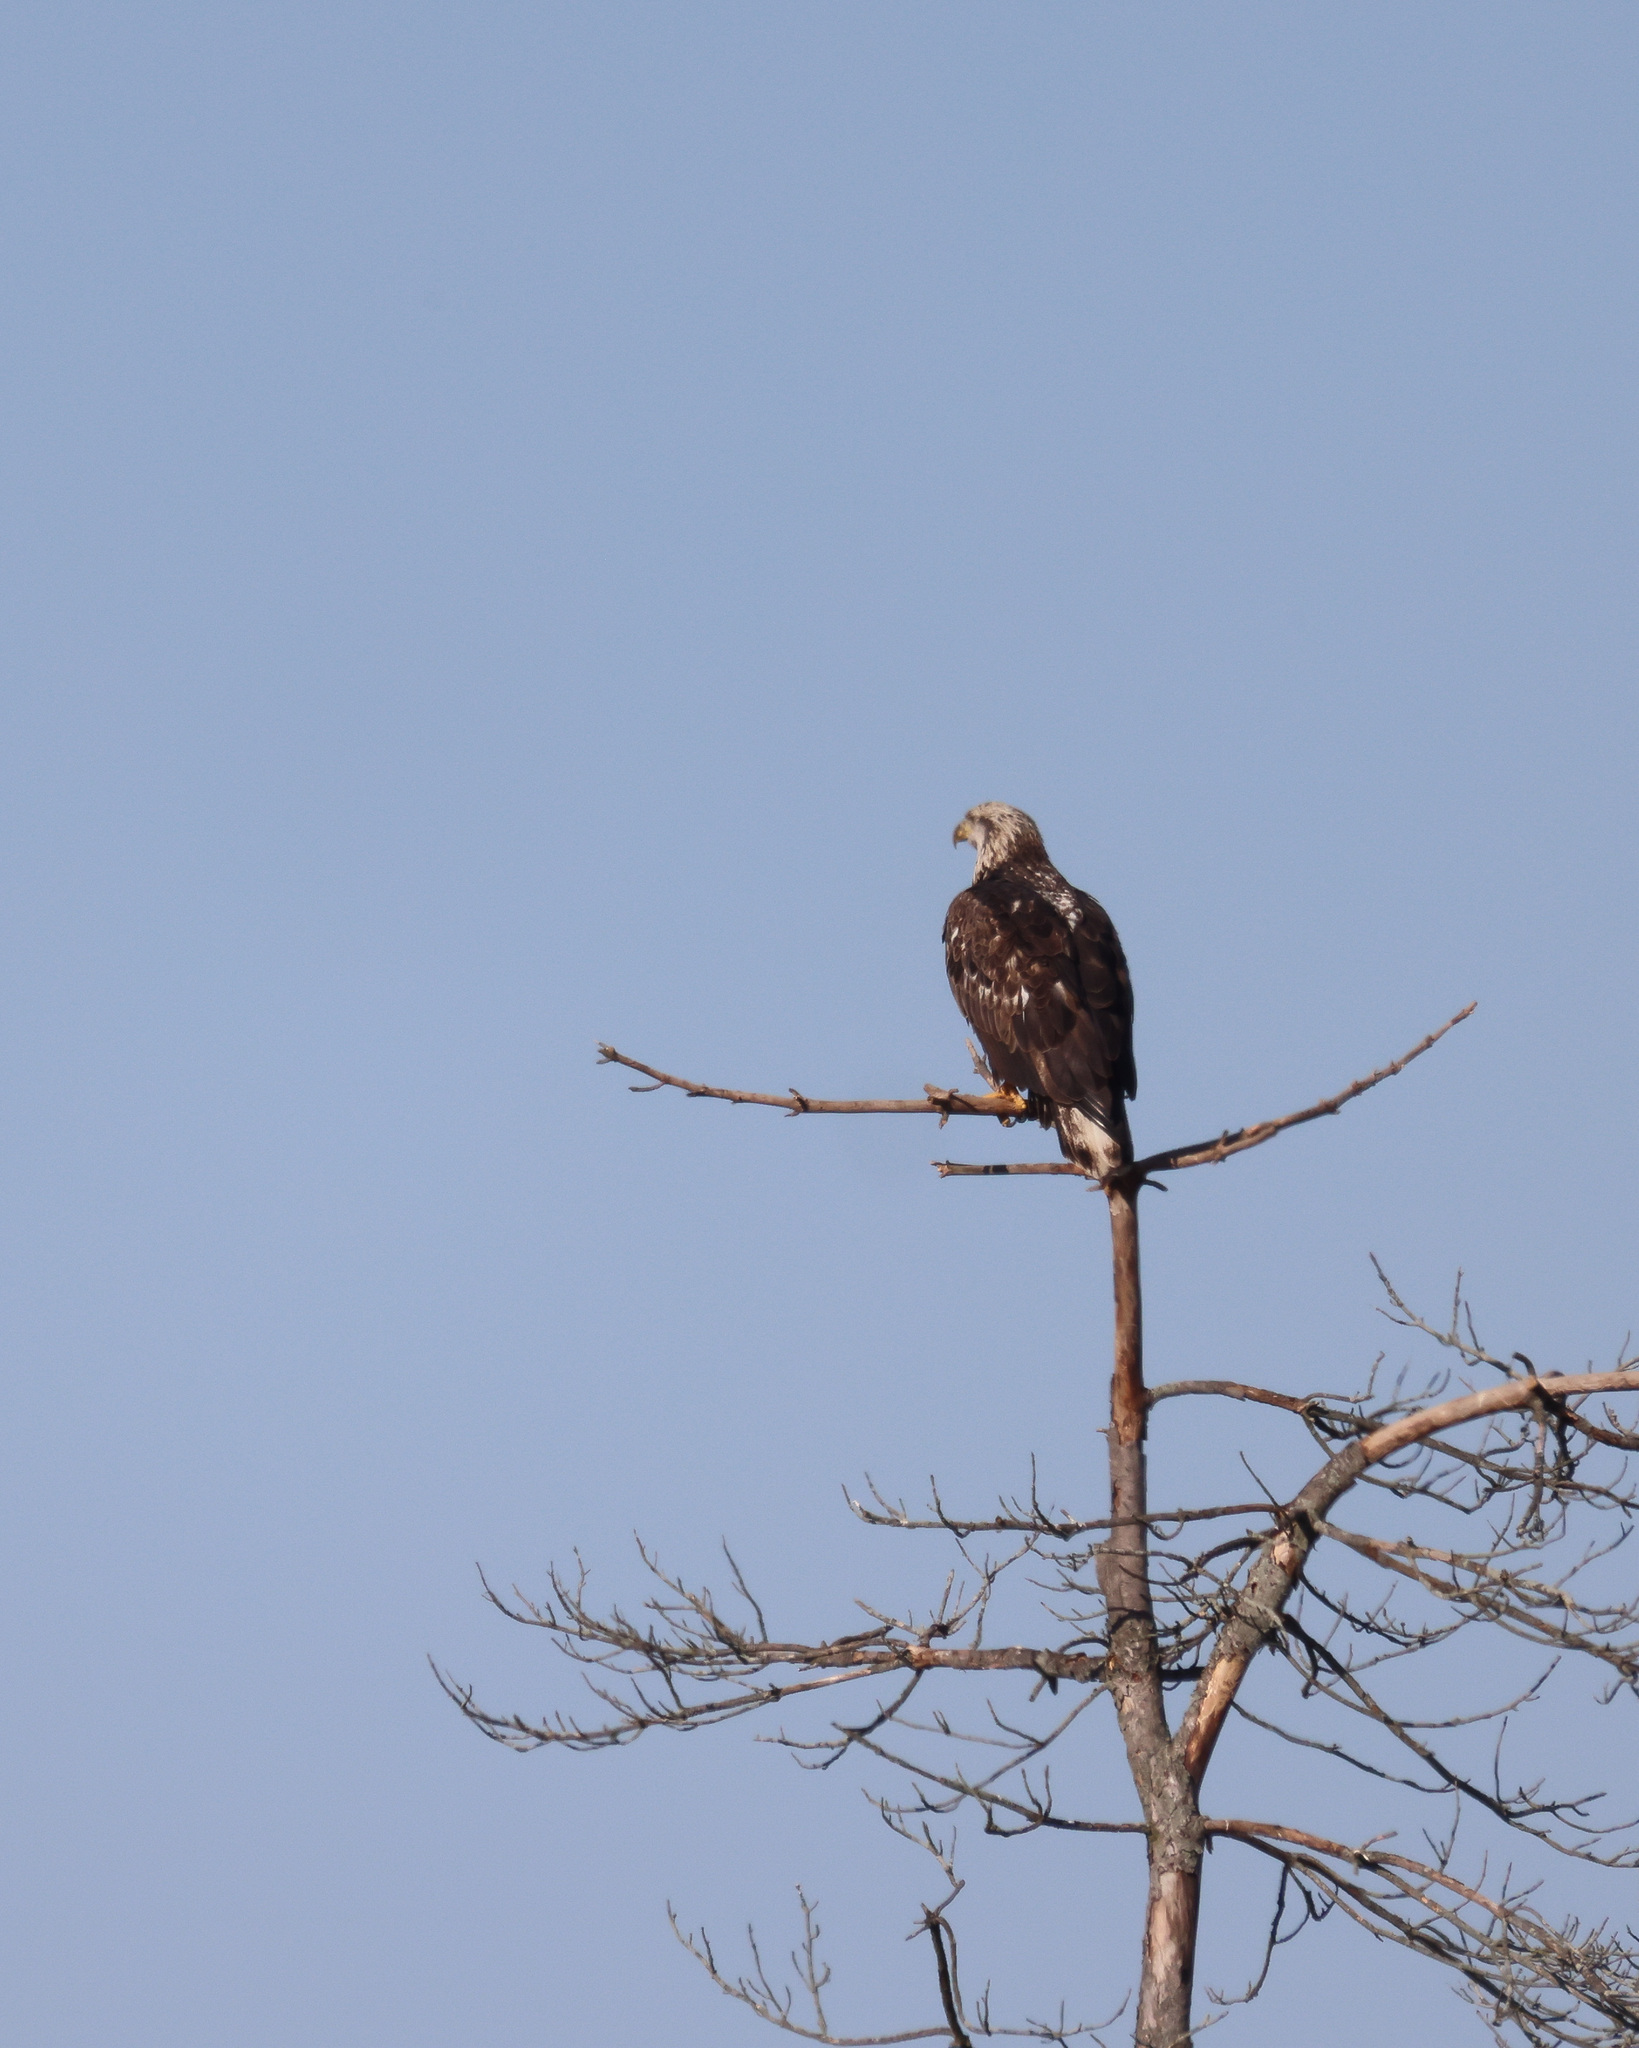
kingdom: Animalia
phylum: Chordata
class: Aves
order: Accipitriformes
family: Accipitridae
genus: Haliaeetus
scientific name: Haliaeetus leucocephalus
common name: Bald eagle
